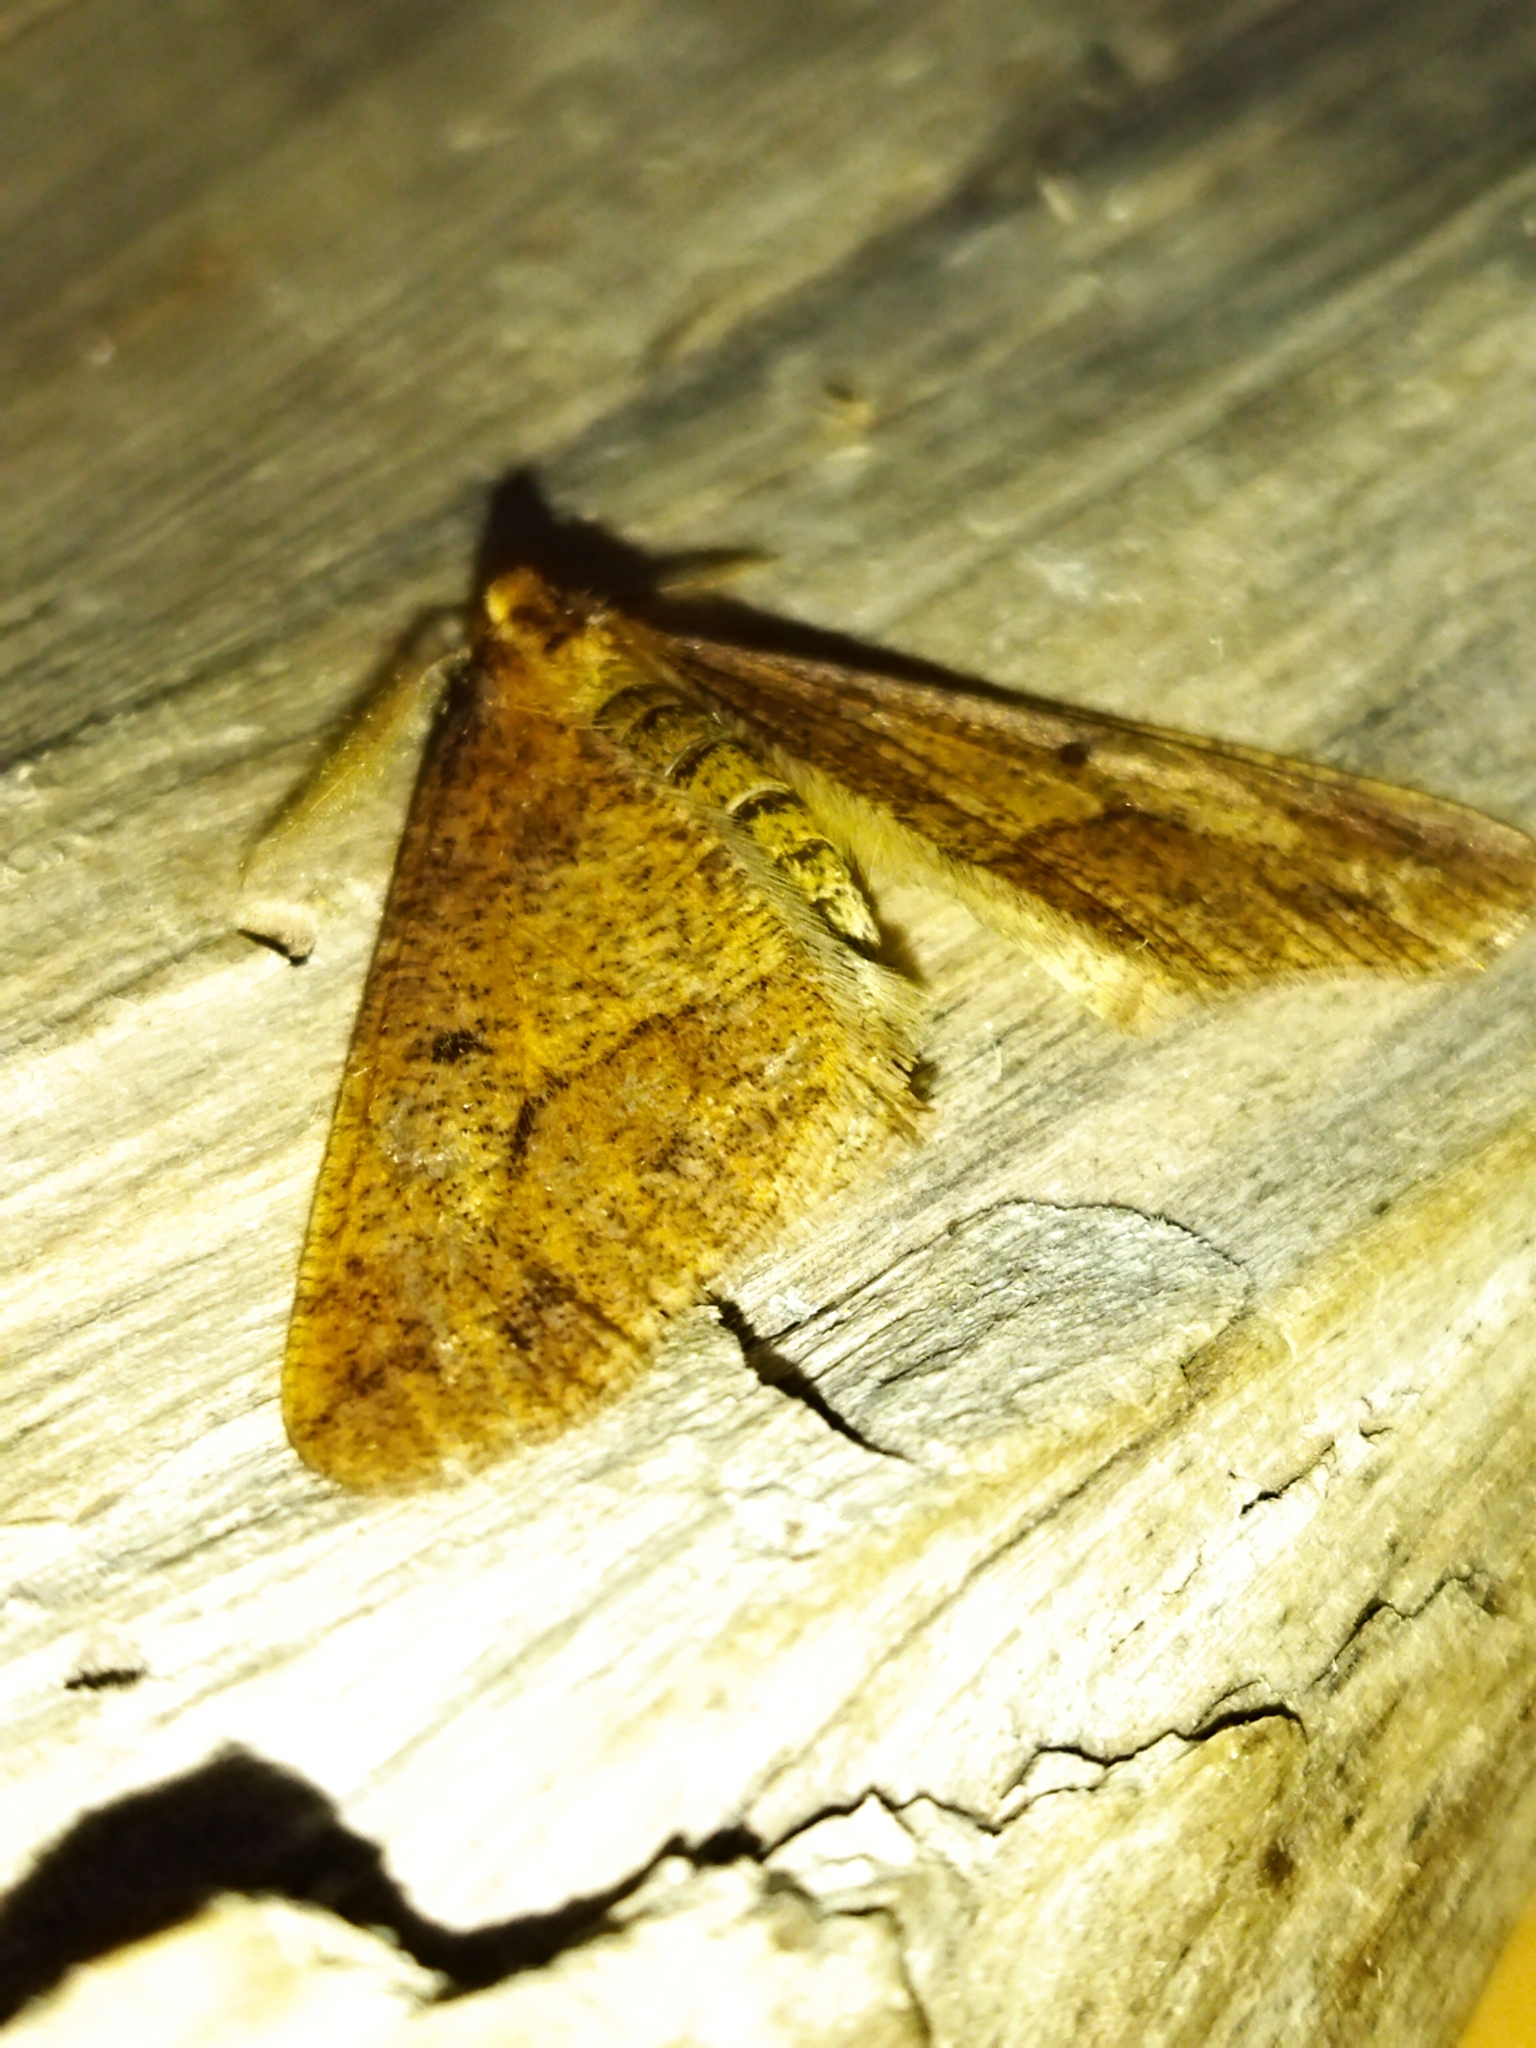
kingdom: Animalia
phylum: Arthropoda
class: Insecta
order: Lepidoptera
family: Geometridae
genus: Erannis
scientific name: Erannis defoliaria
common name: Mottled umber
